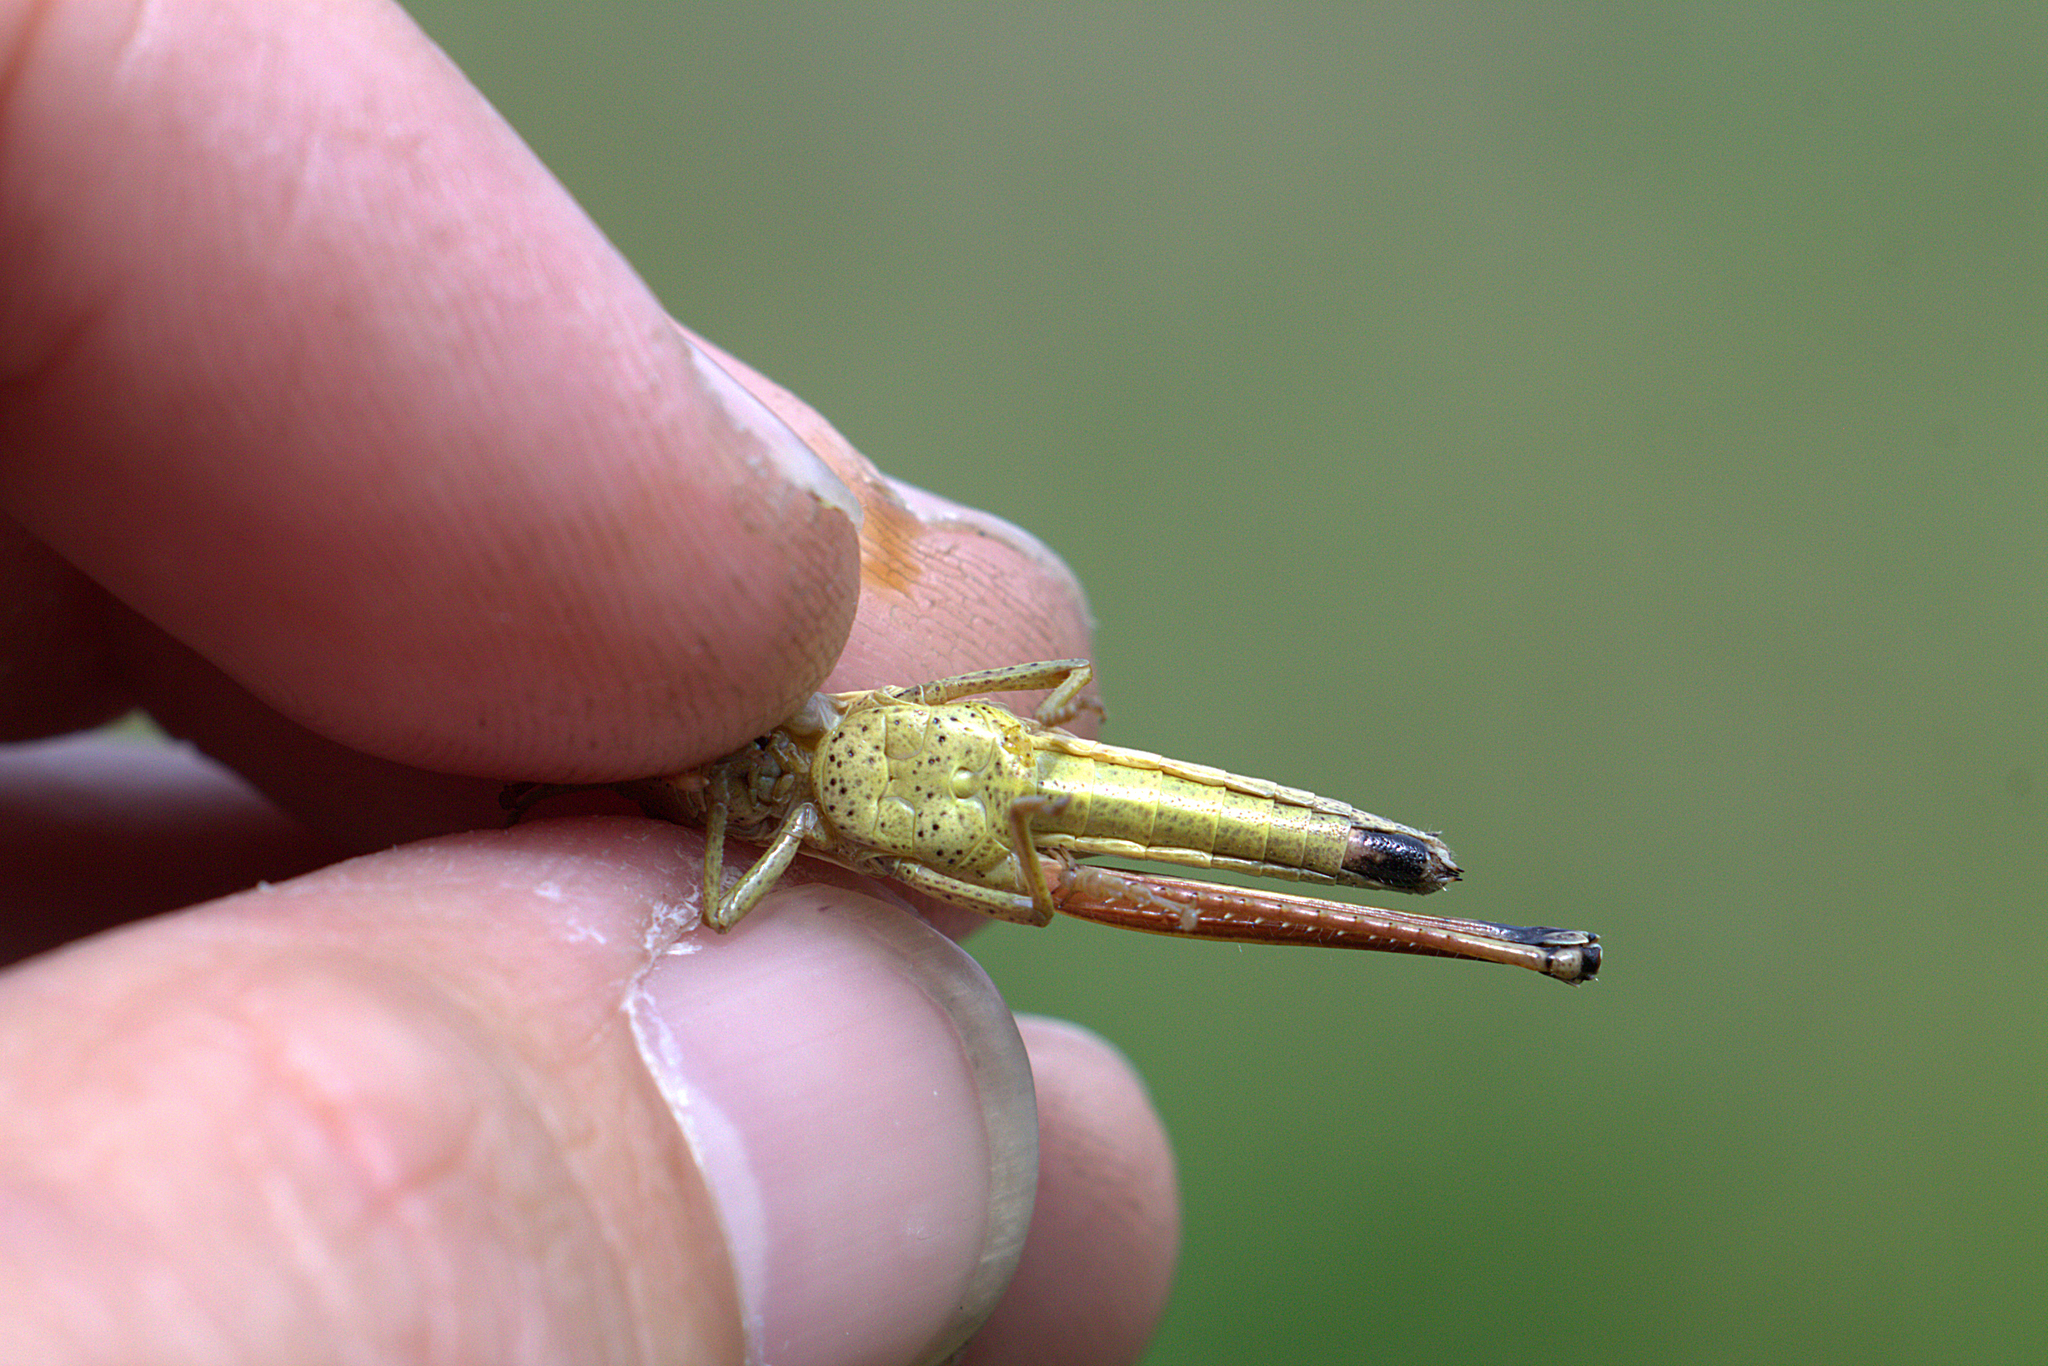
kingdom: Animalia
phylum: Arthropoda
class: Insecta
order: Orthoptera
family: Acrididae
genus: Chrysochraon
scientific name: Chrysochraon dispar
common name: Large gold grasshopper
